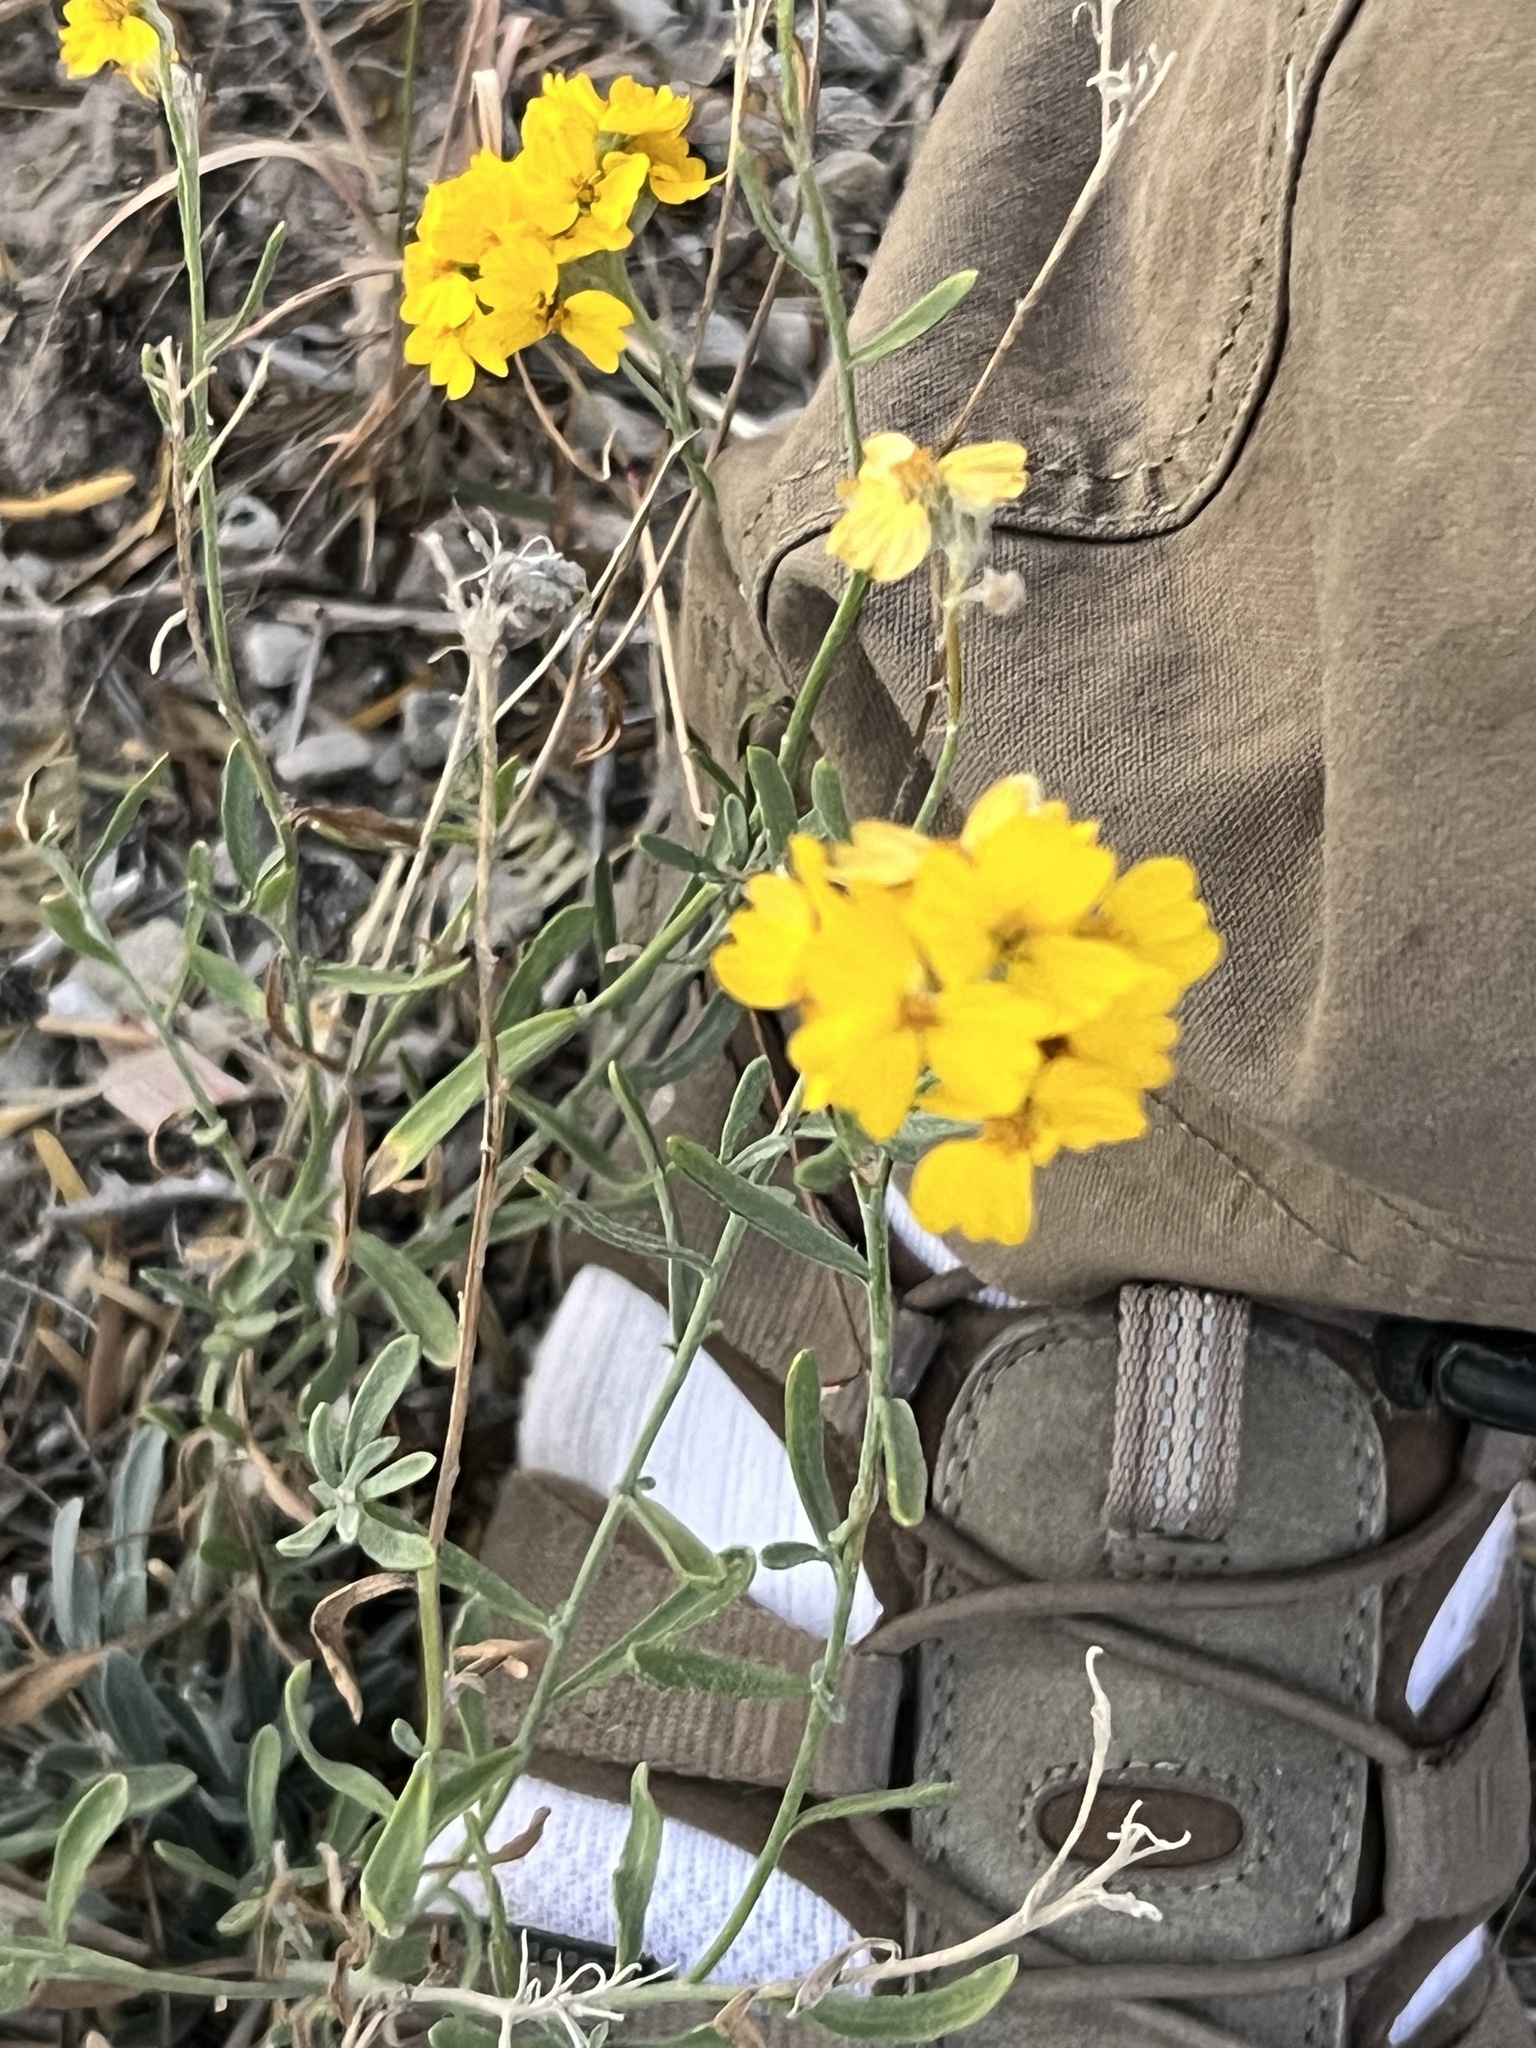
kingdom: Plantae
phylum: Tracheophyta
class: Magnoliopsida
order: Asterales
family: Asteraceae
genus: Psilostrophe
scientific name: Psilostrophe tagetina
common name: Marigold paper-flower
